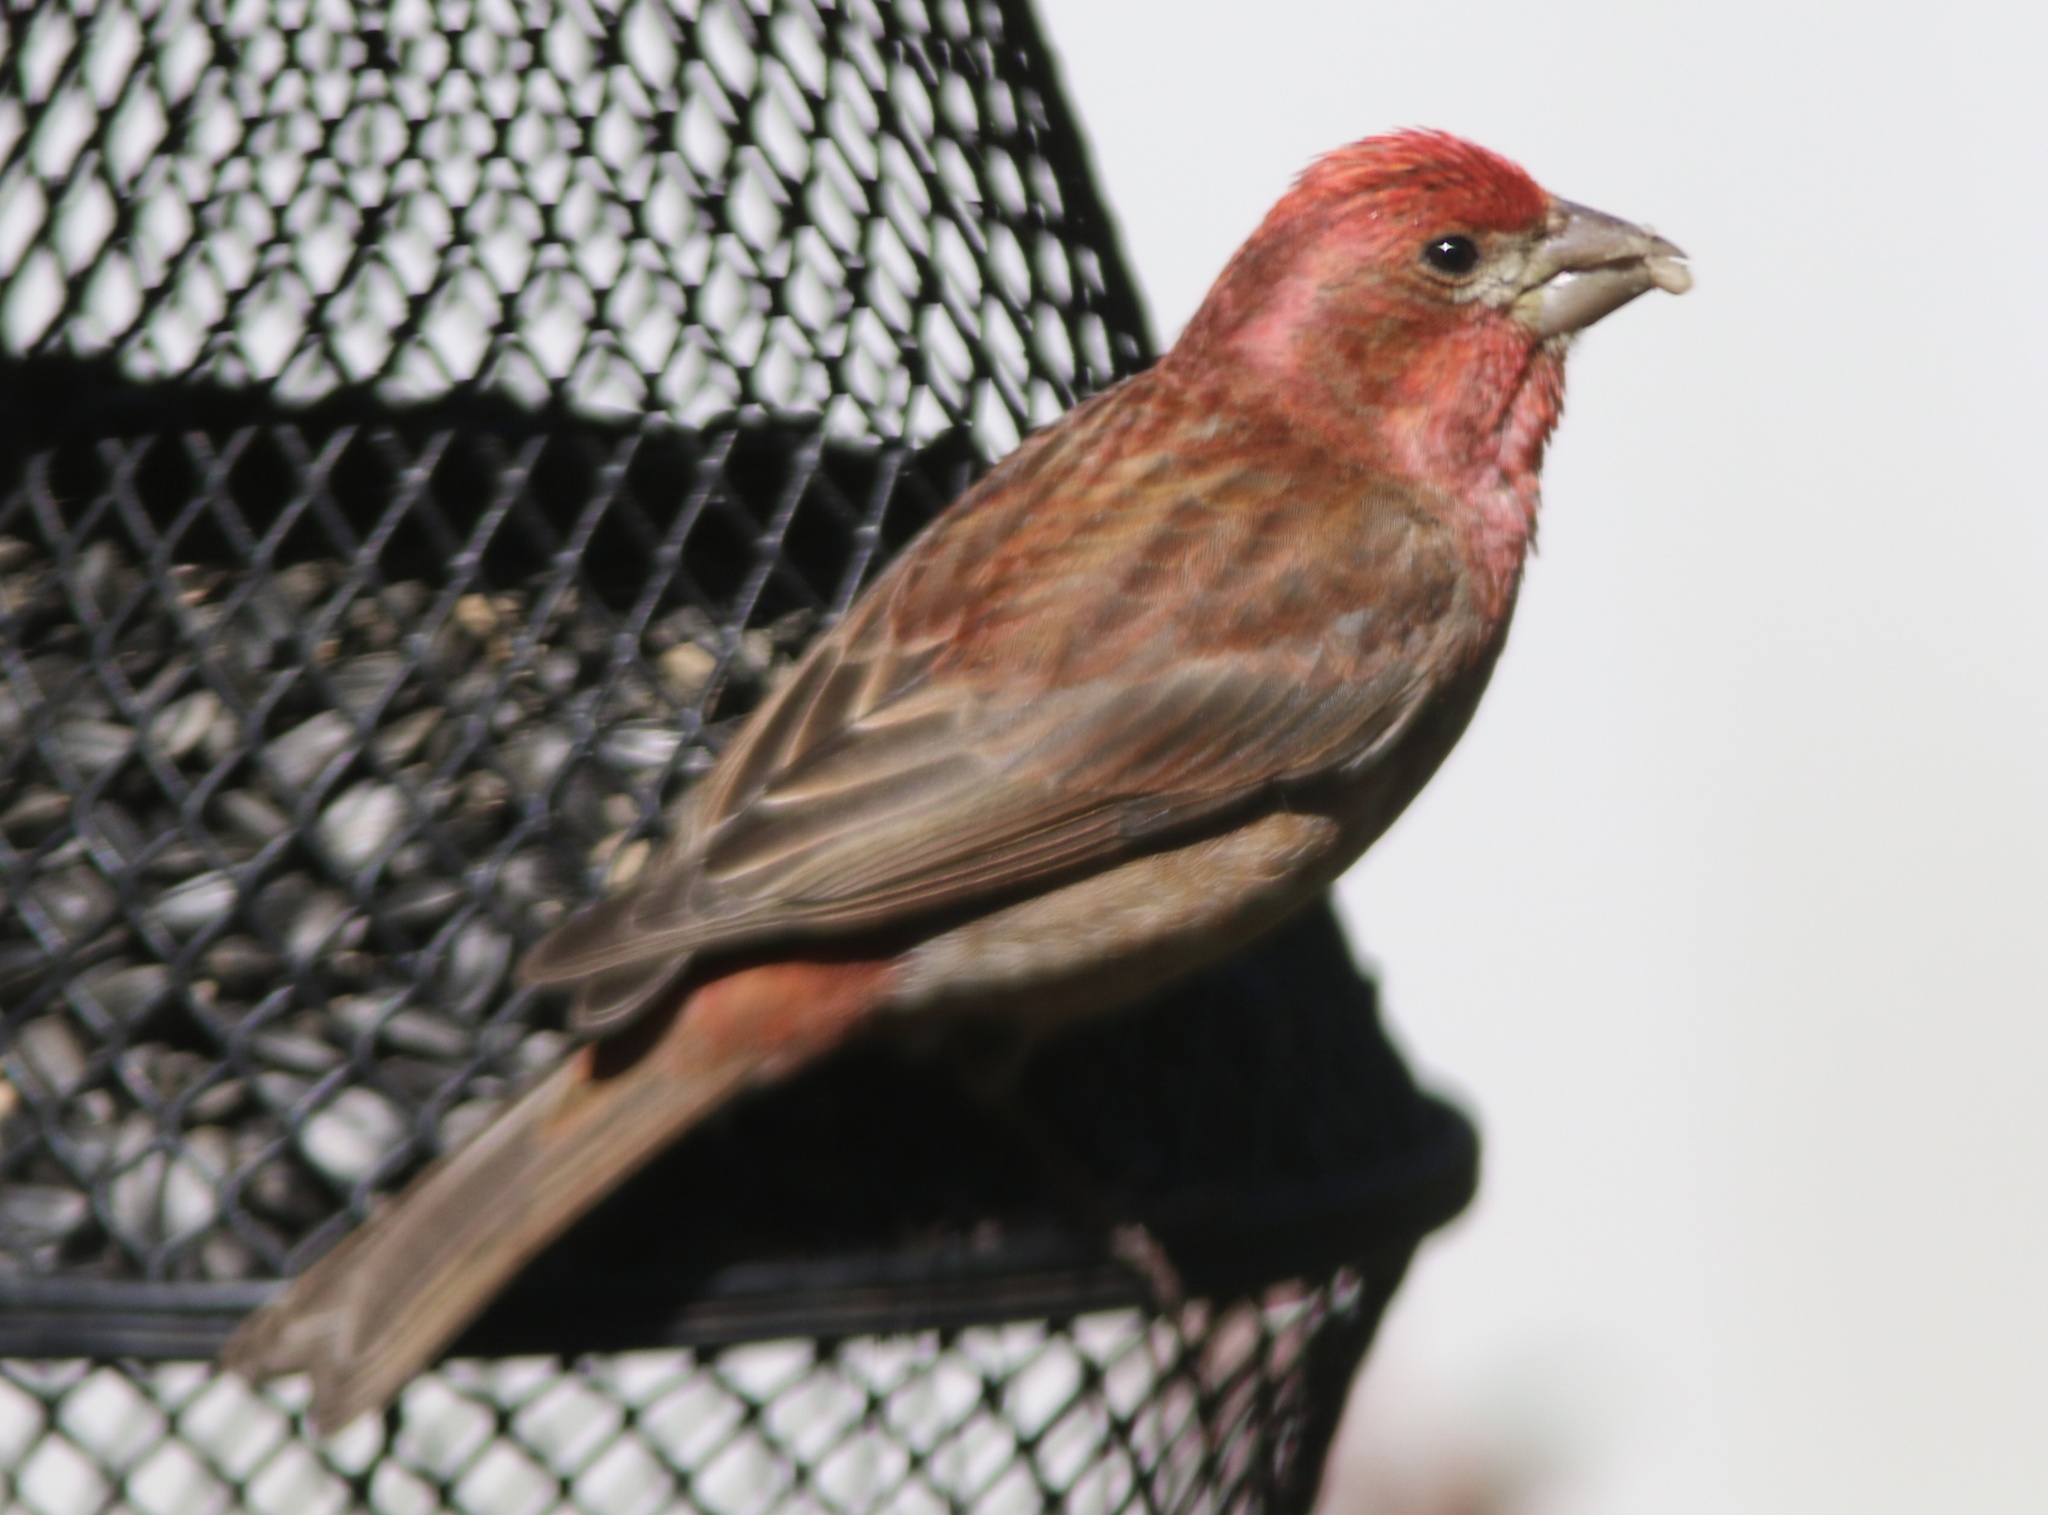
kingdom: Animalia
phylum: Chordata
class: Aves
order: Passeriformes
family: Fringillidae
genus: Haemorhous
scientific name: Haemorhous purpureus
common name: Purple finch
